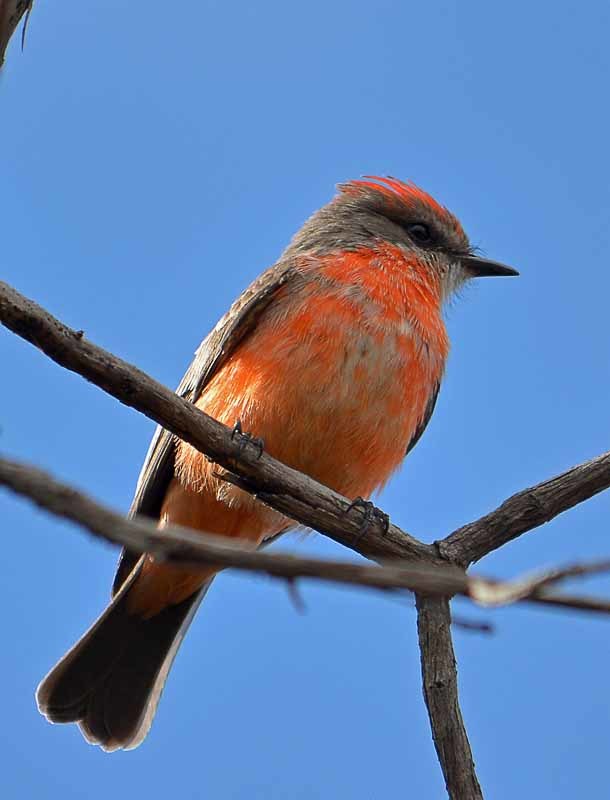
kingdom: Animalia
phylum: Chordata
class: Aves
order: Passeriformes
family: Tyrannidae
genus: Pyrocephalus
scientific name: Pyrocephalus rubinus
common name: Vermilion flycatcher
